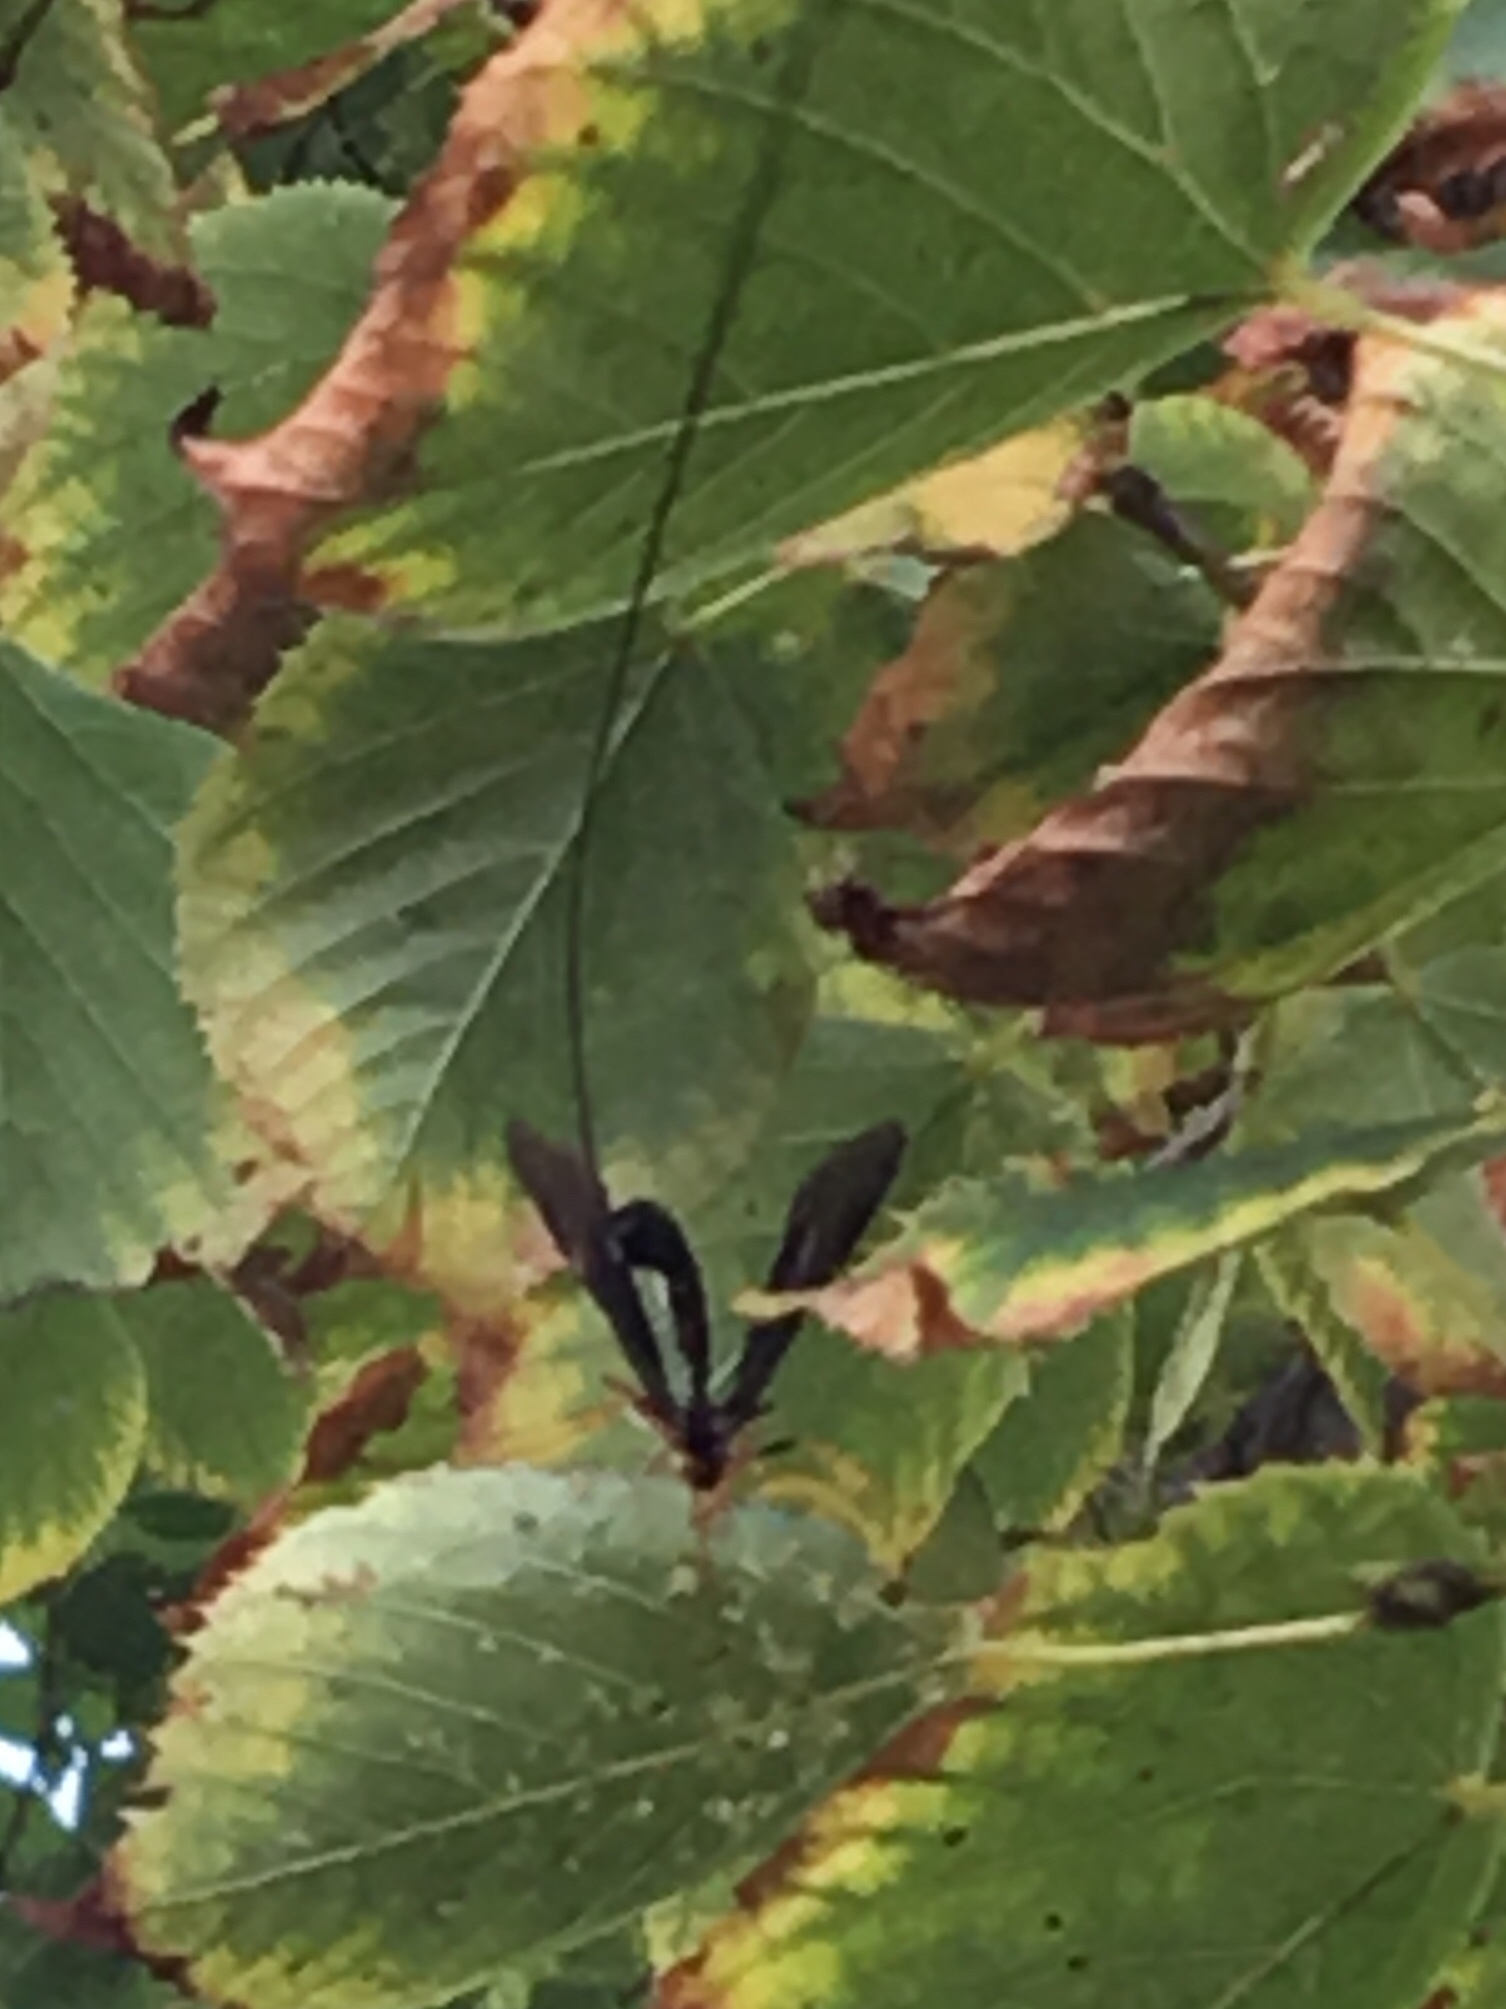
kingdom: Animalia
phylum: Arthropoda
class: Insecta
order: Hymenoptera
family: Ichneumonidae
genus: Megarhyssa
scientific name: Megarhyssa atrata
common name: Black giant ichneumonid wasp
